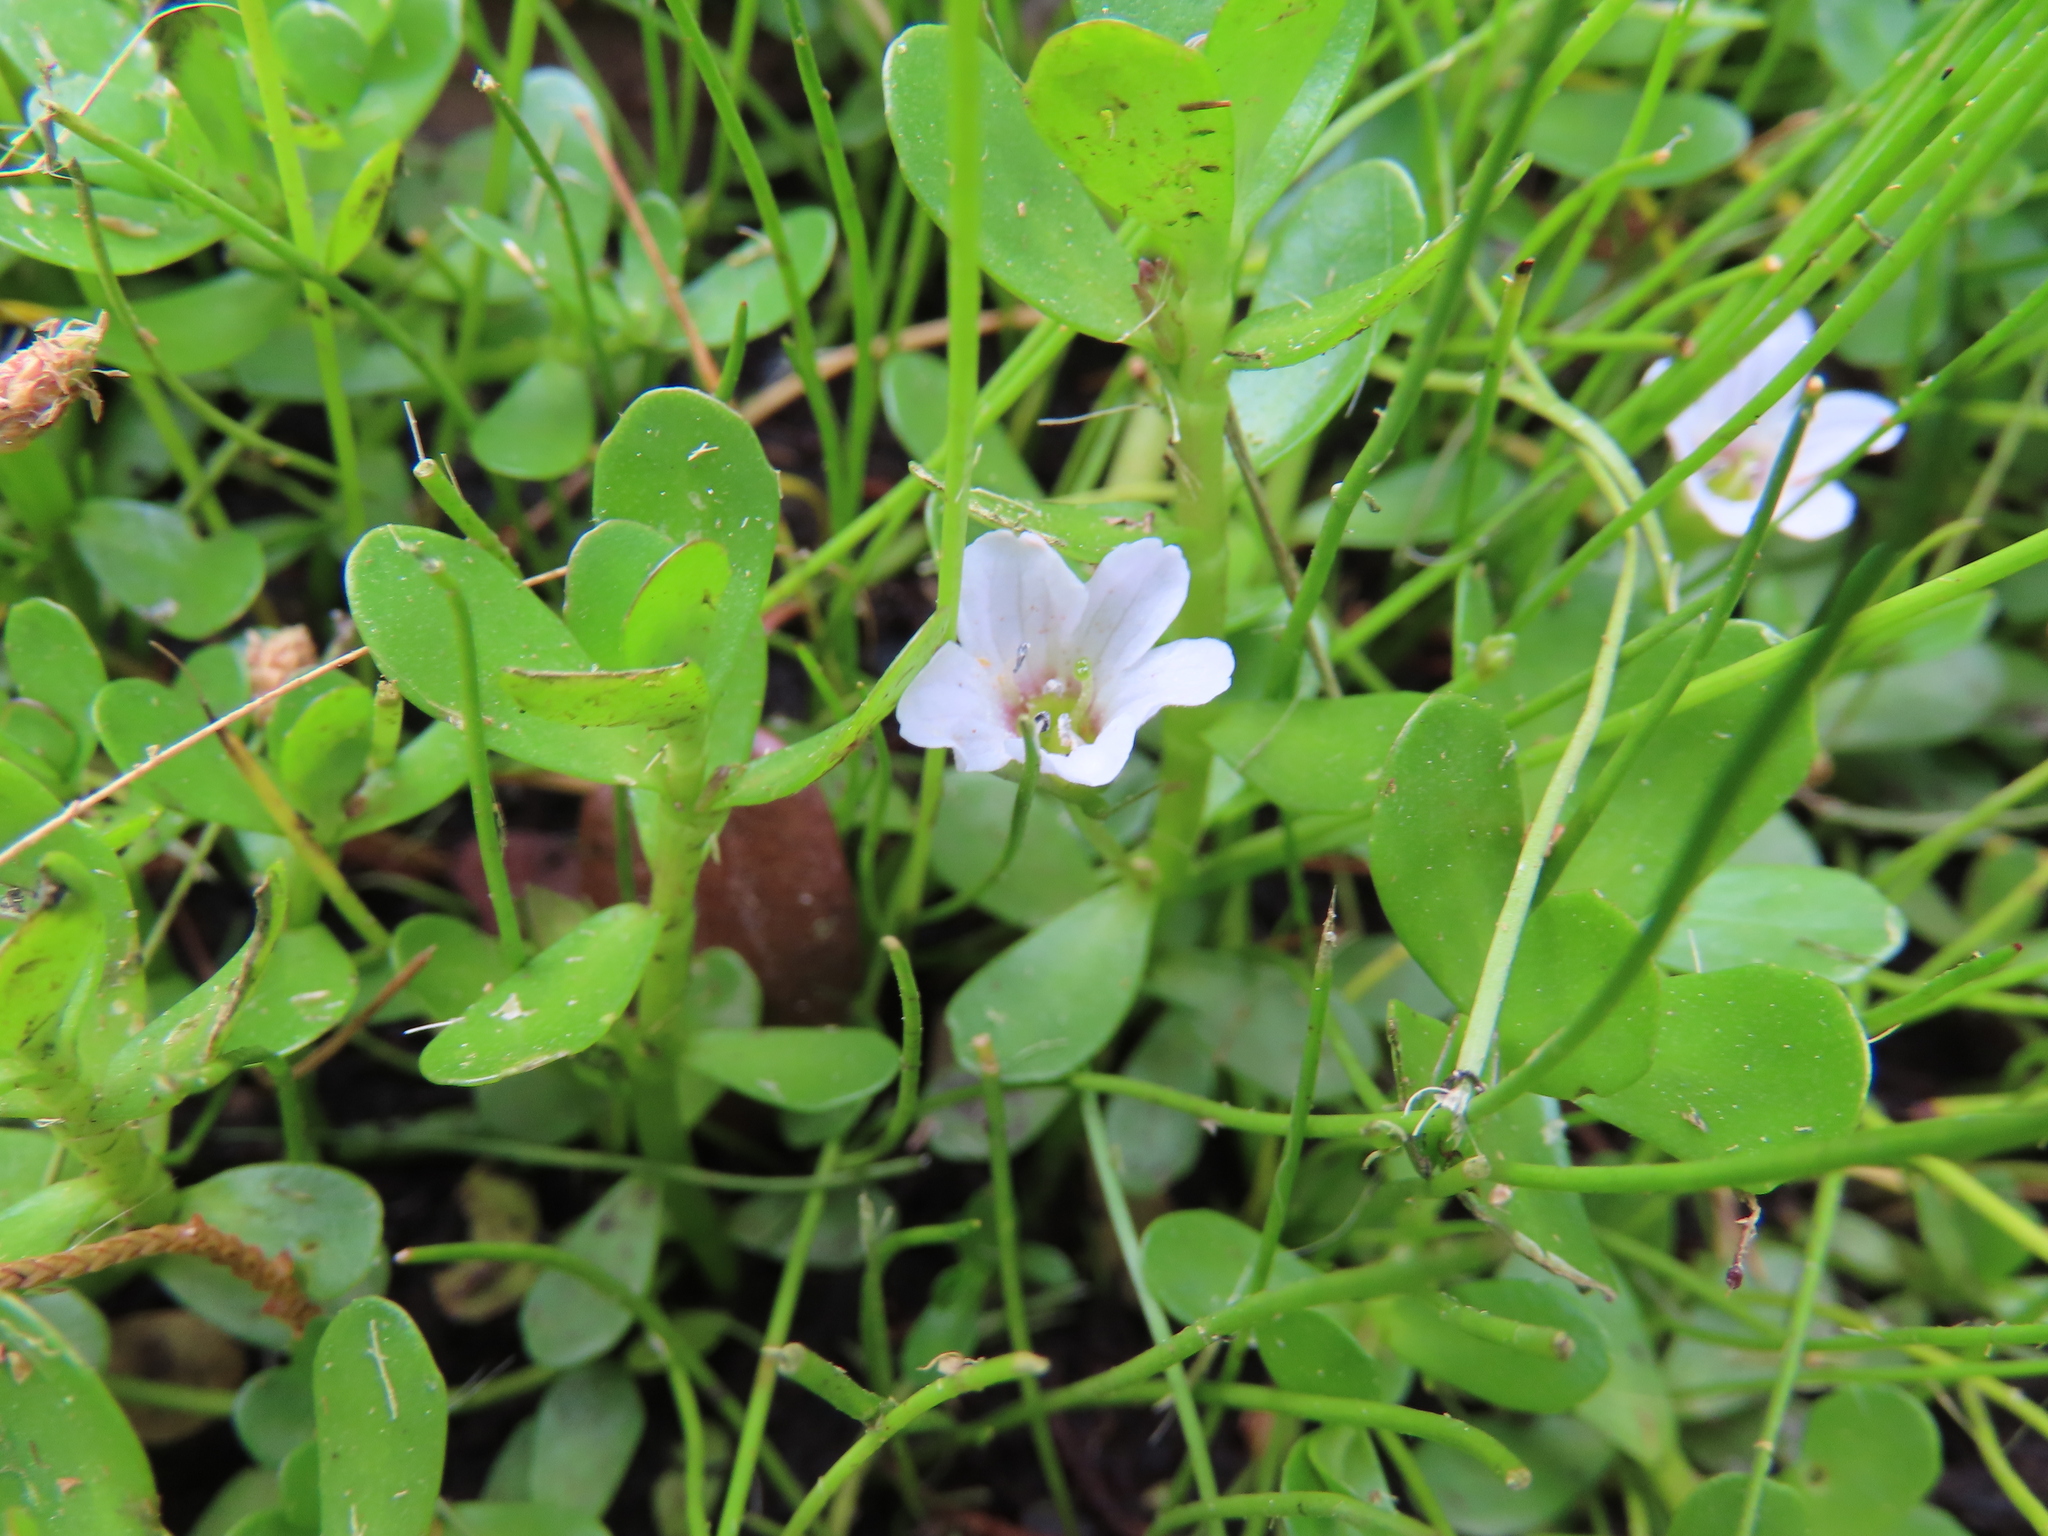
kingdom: Plantae
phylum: Tracheophyta
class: Magnoliopsida
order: Lamiales
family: Plantaginaceae
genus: Bacopa
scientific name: Bacopa monnieri
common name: Indian-pennywort
